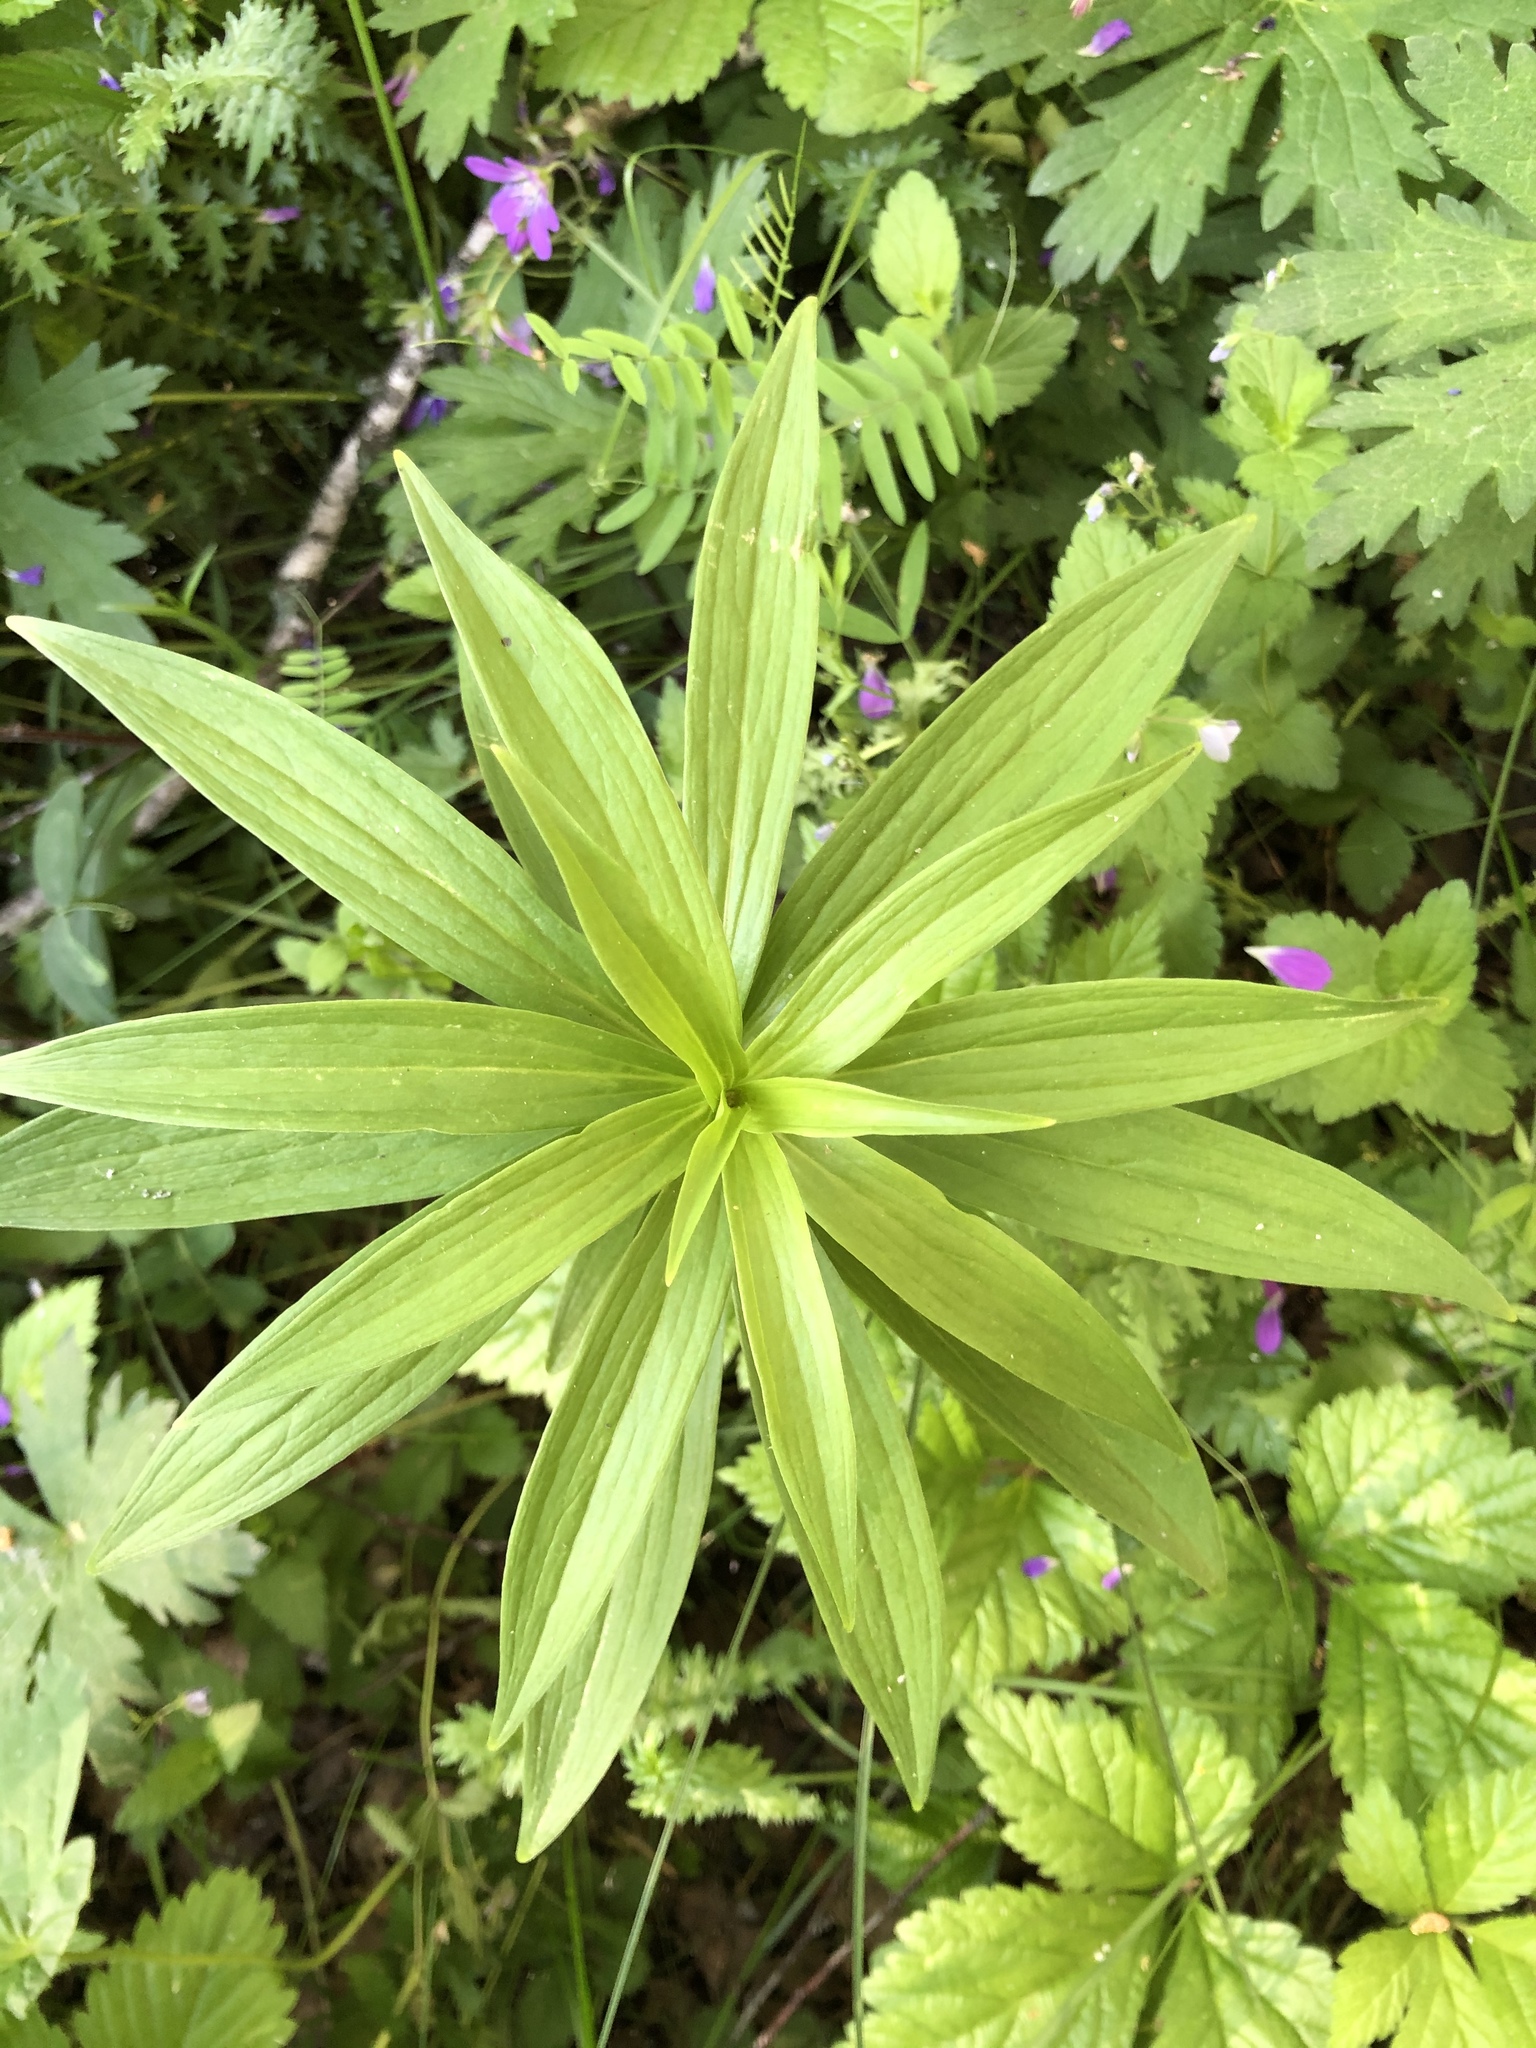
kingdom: Plantae
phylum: Tracheophyta
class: Liliopsida
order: Liliales
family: Liliaceae
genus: Lilium
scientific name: Lilium martagon
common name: Martagon lily
